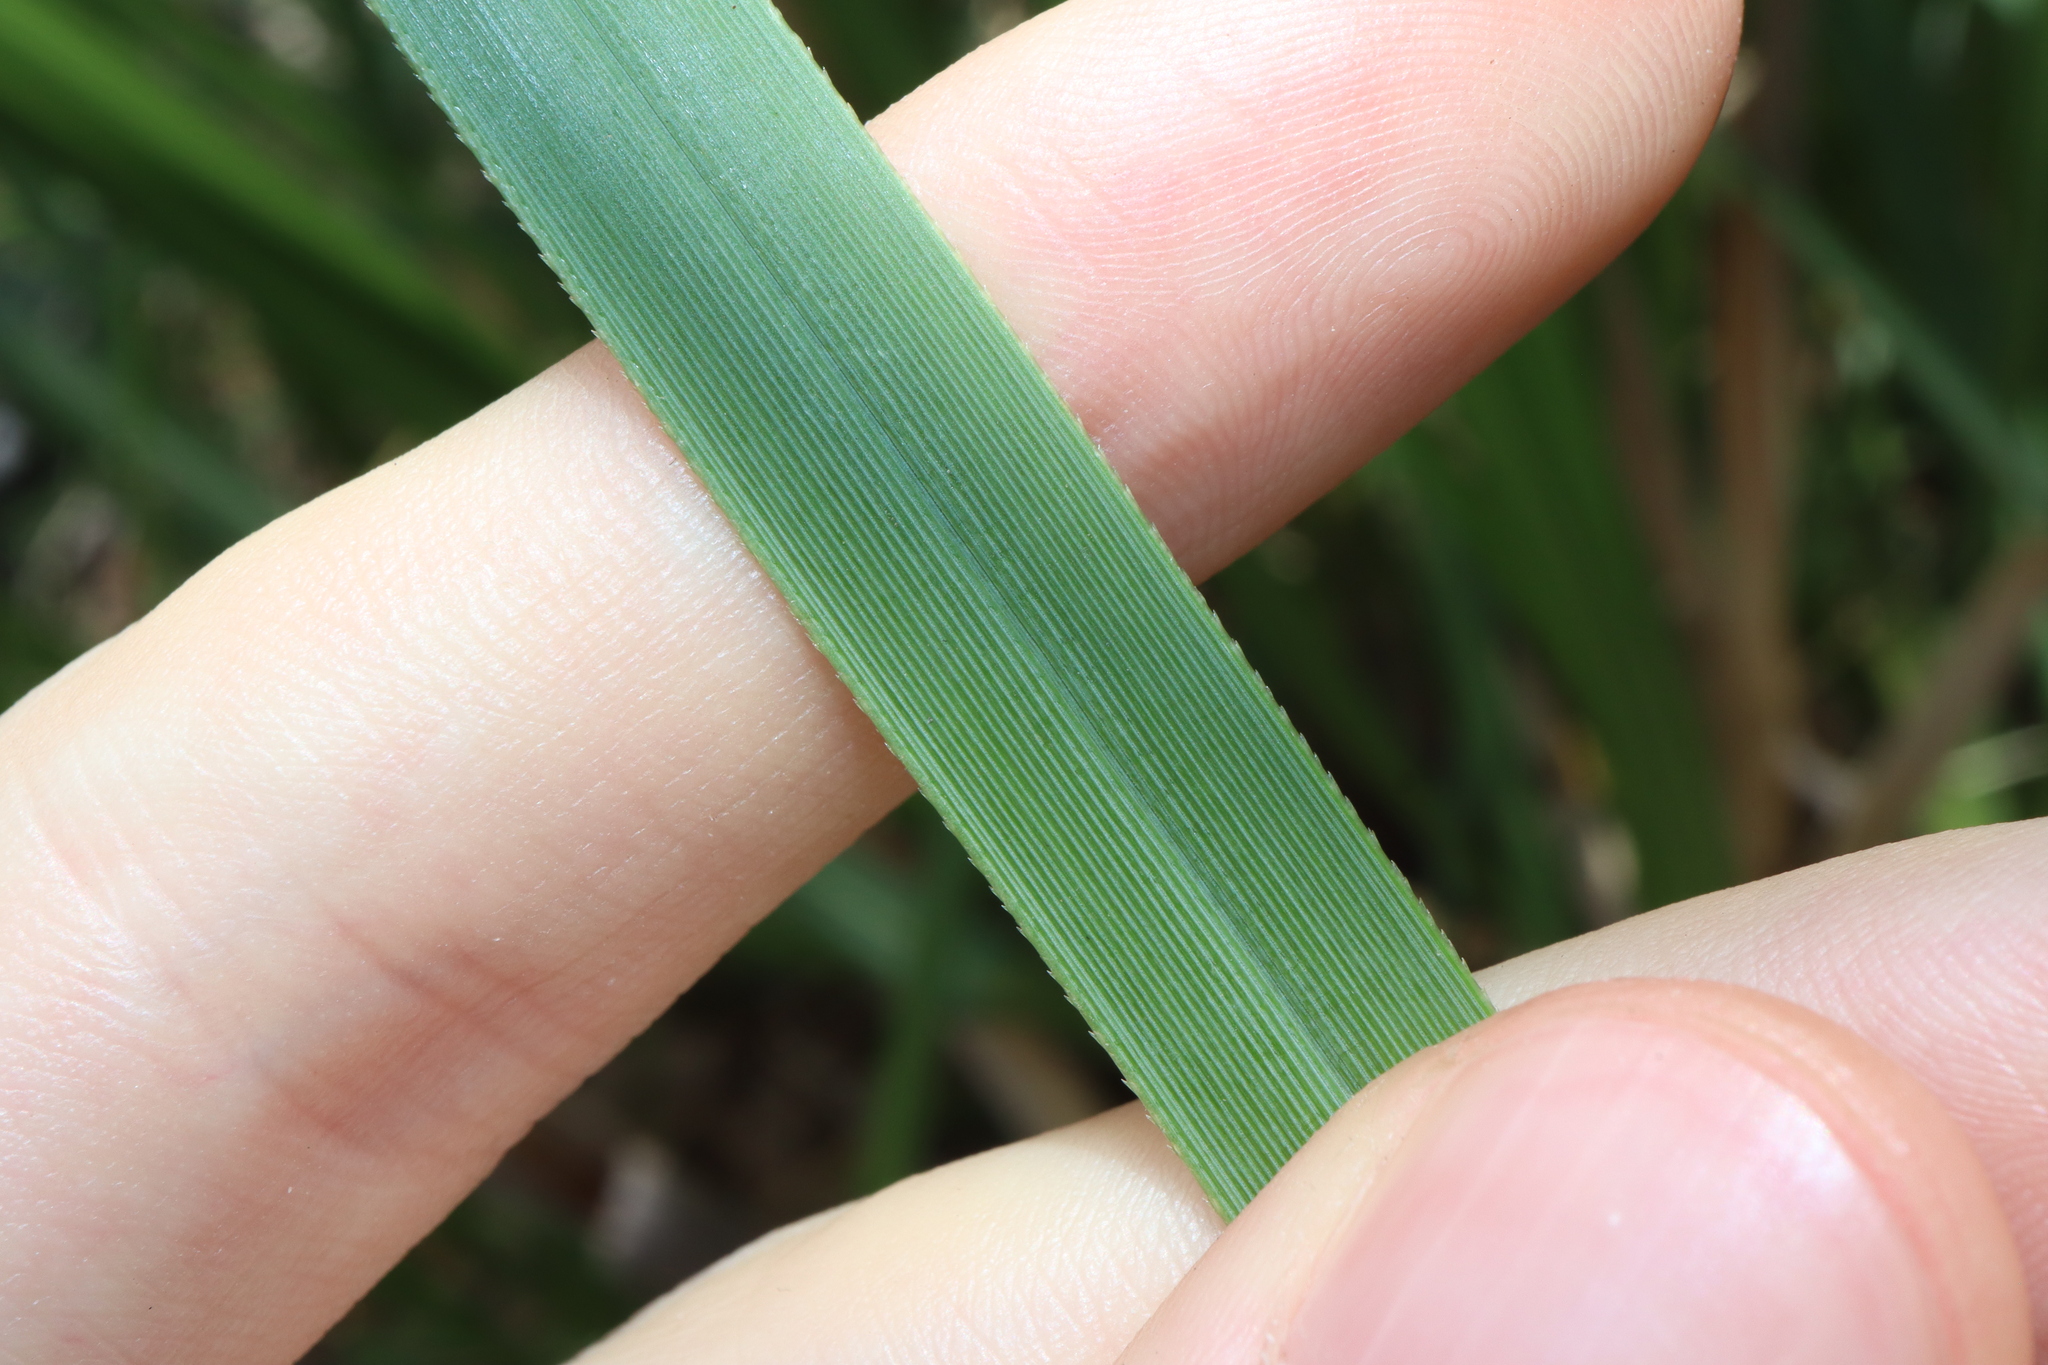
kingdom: Plantae
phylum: Tracheophyta
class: Liliopsida
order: Poales
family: Poaceae
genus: Cortaderia
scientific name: Cortaderia jubata
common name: Purple pampas grass
